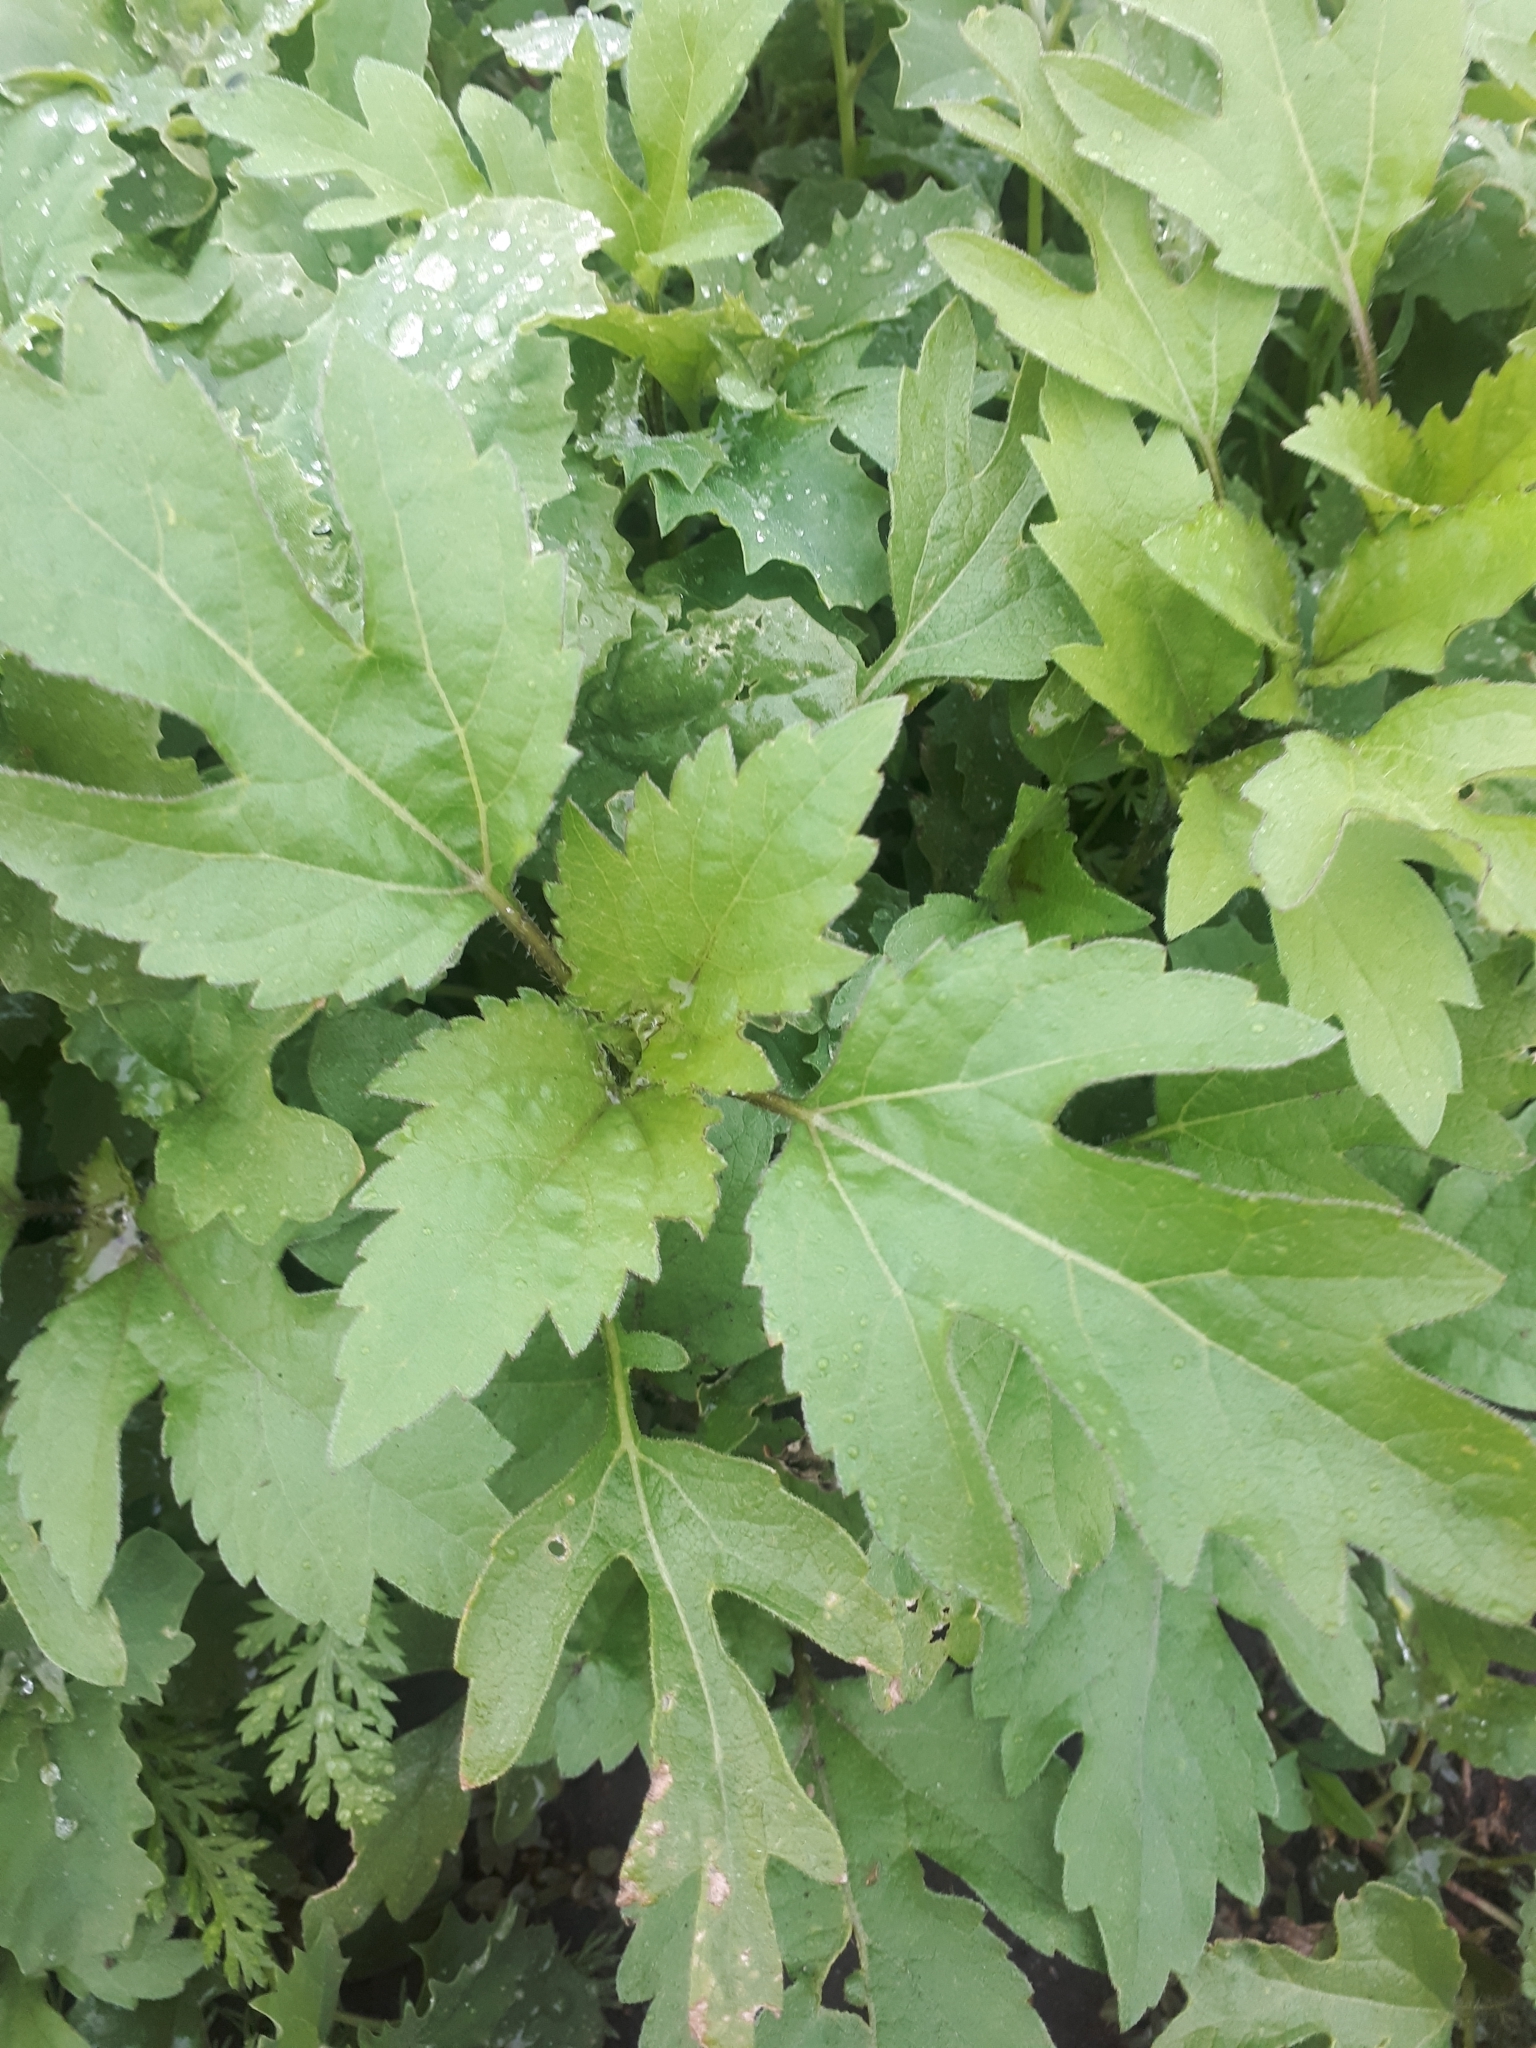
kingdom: Plantae
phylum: Tracheophyta
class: Magnoliopsida
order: Asterales
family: Asteraceae
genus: Cyclachaena
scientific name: Cyclachaena xanthiifolia
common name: Giant sumpweed
